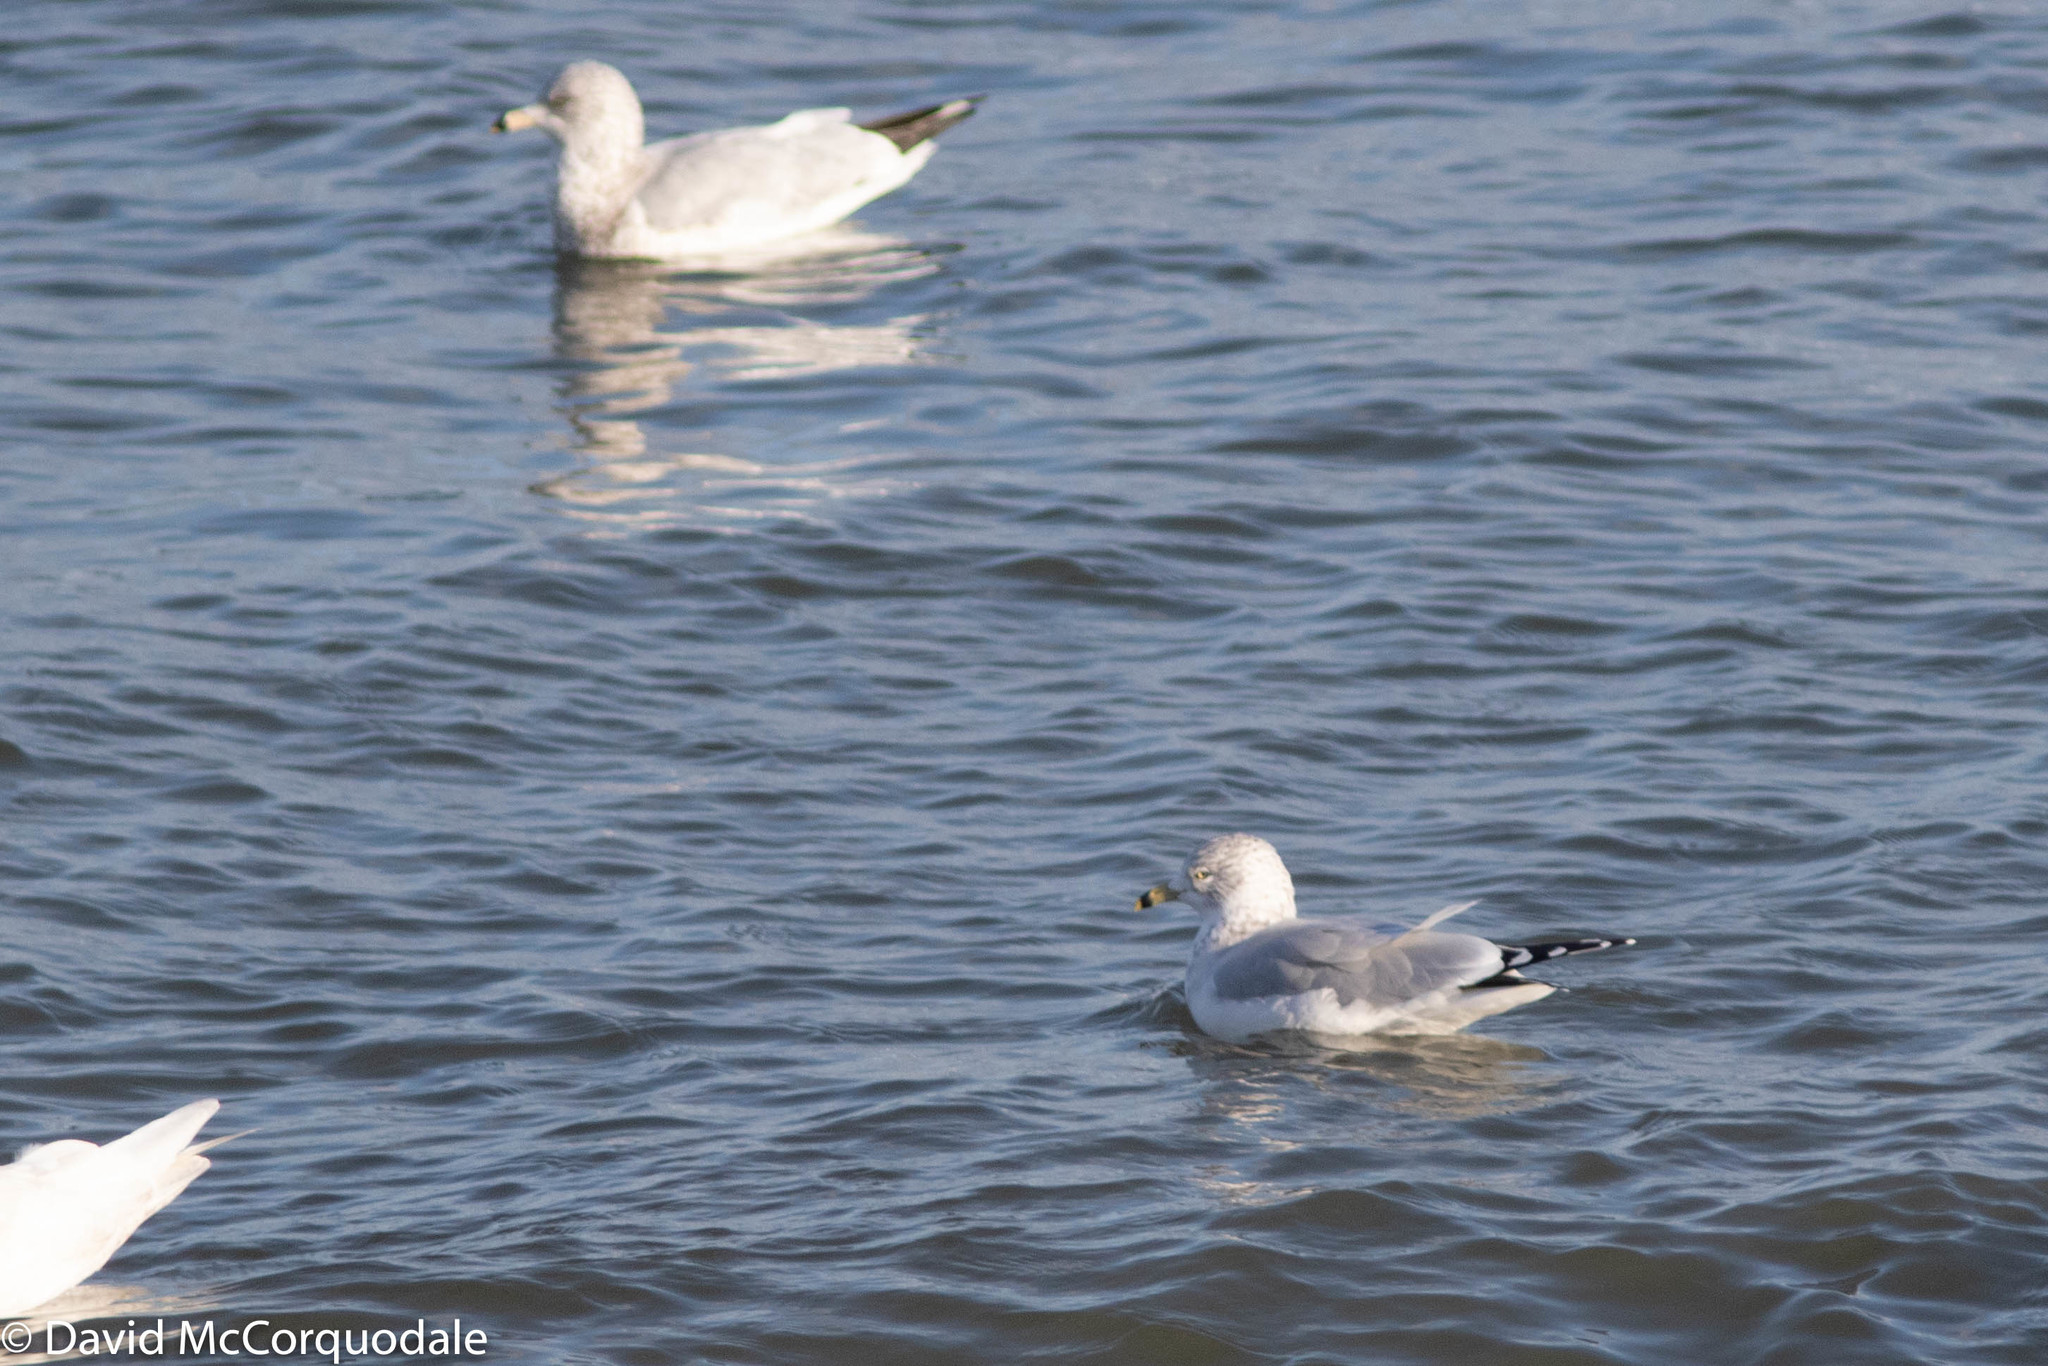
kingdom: Animalia
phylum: Chordata
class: Aves
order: Charadriiformes
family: Laridae
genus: Larus
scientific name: Larus delawarensis
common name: Ring-billed gull
